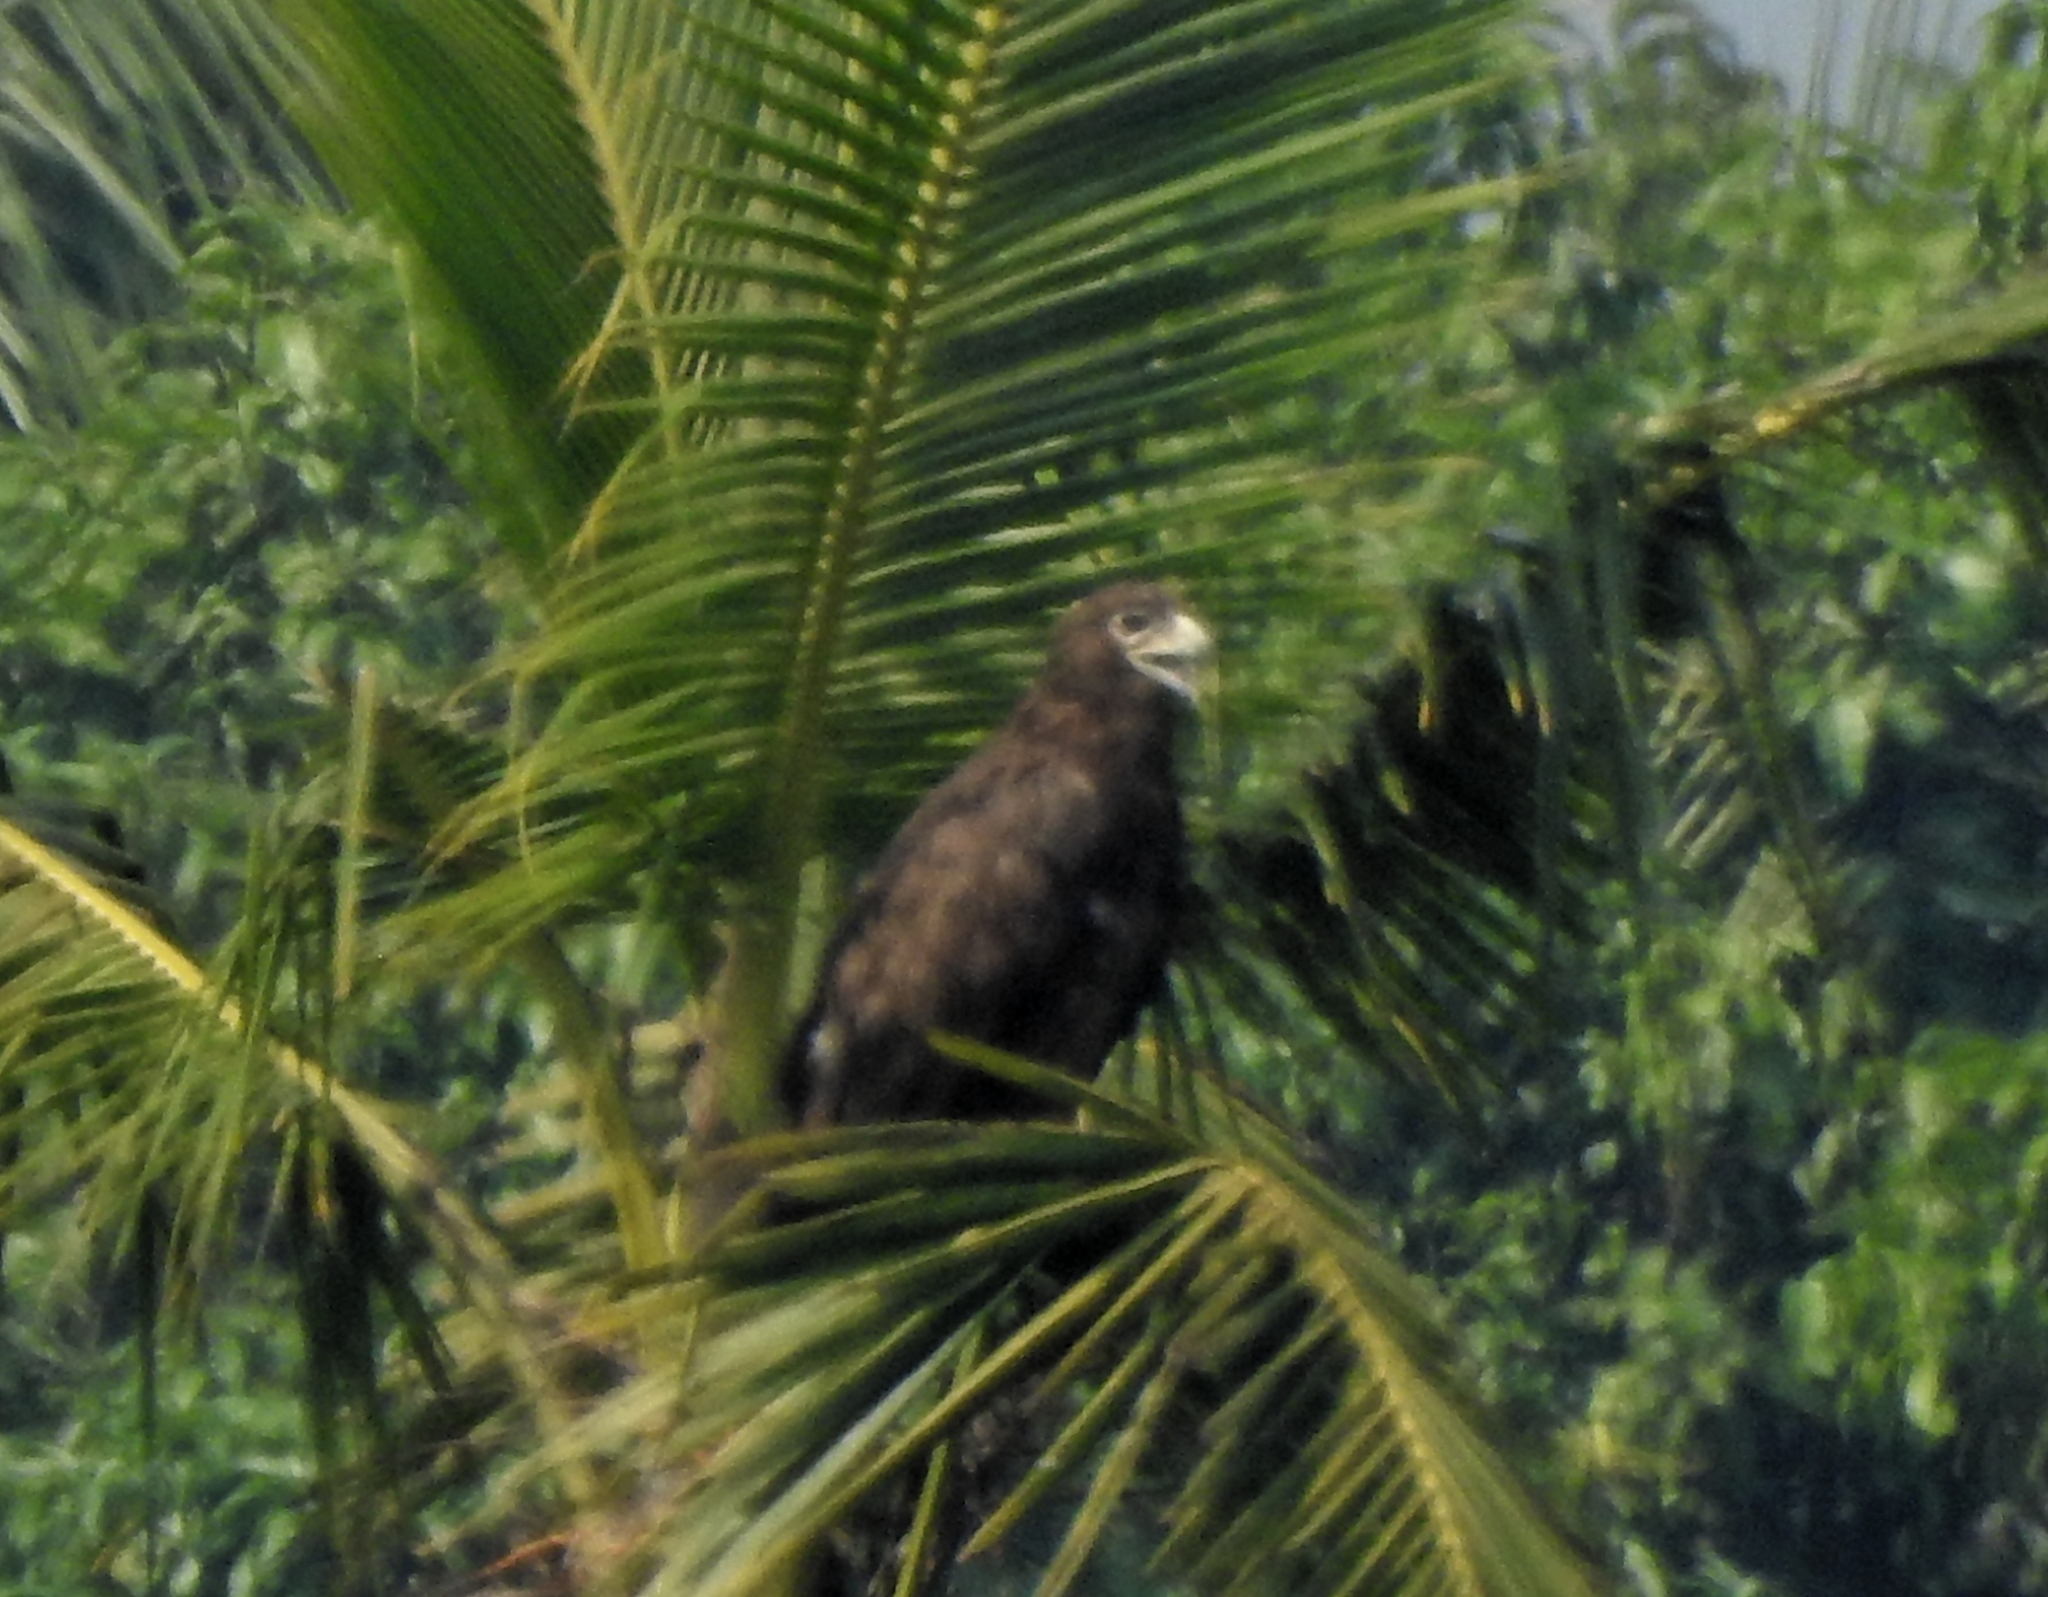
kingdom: Animalia
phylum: Chordata
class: Aves
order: Accipitriformes
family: Accipitridae
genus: Aquila
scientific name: Aquila clanga
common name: Greater spotted eagle
